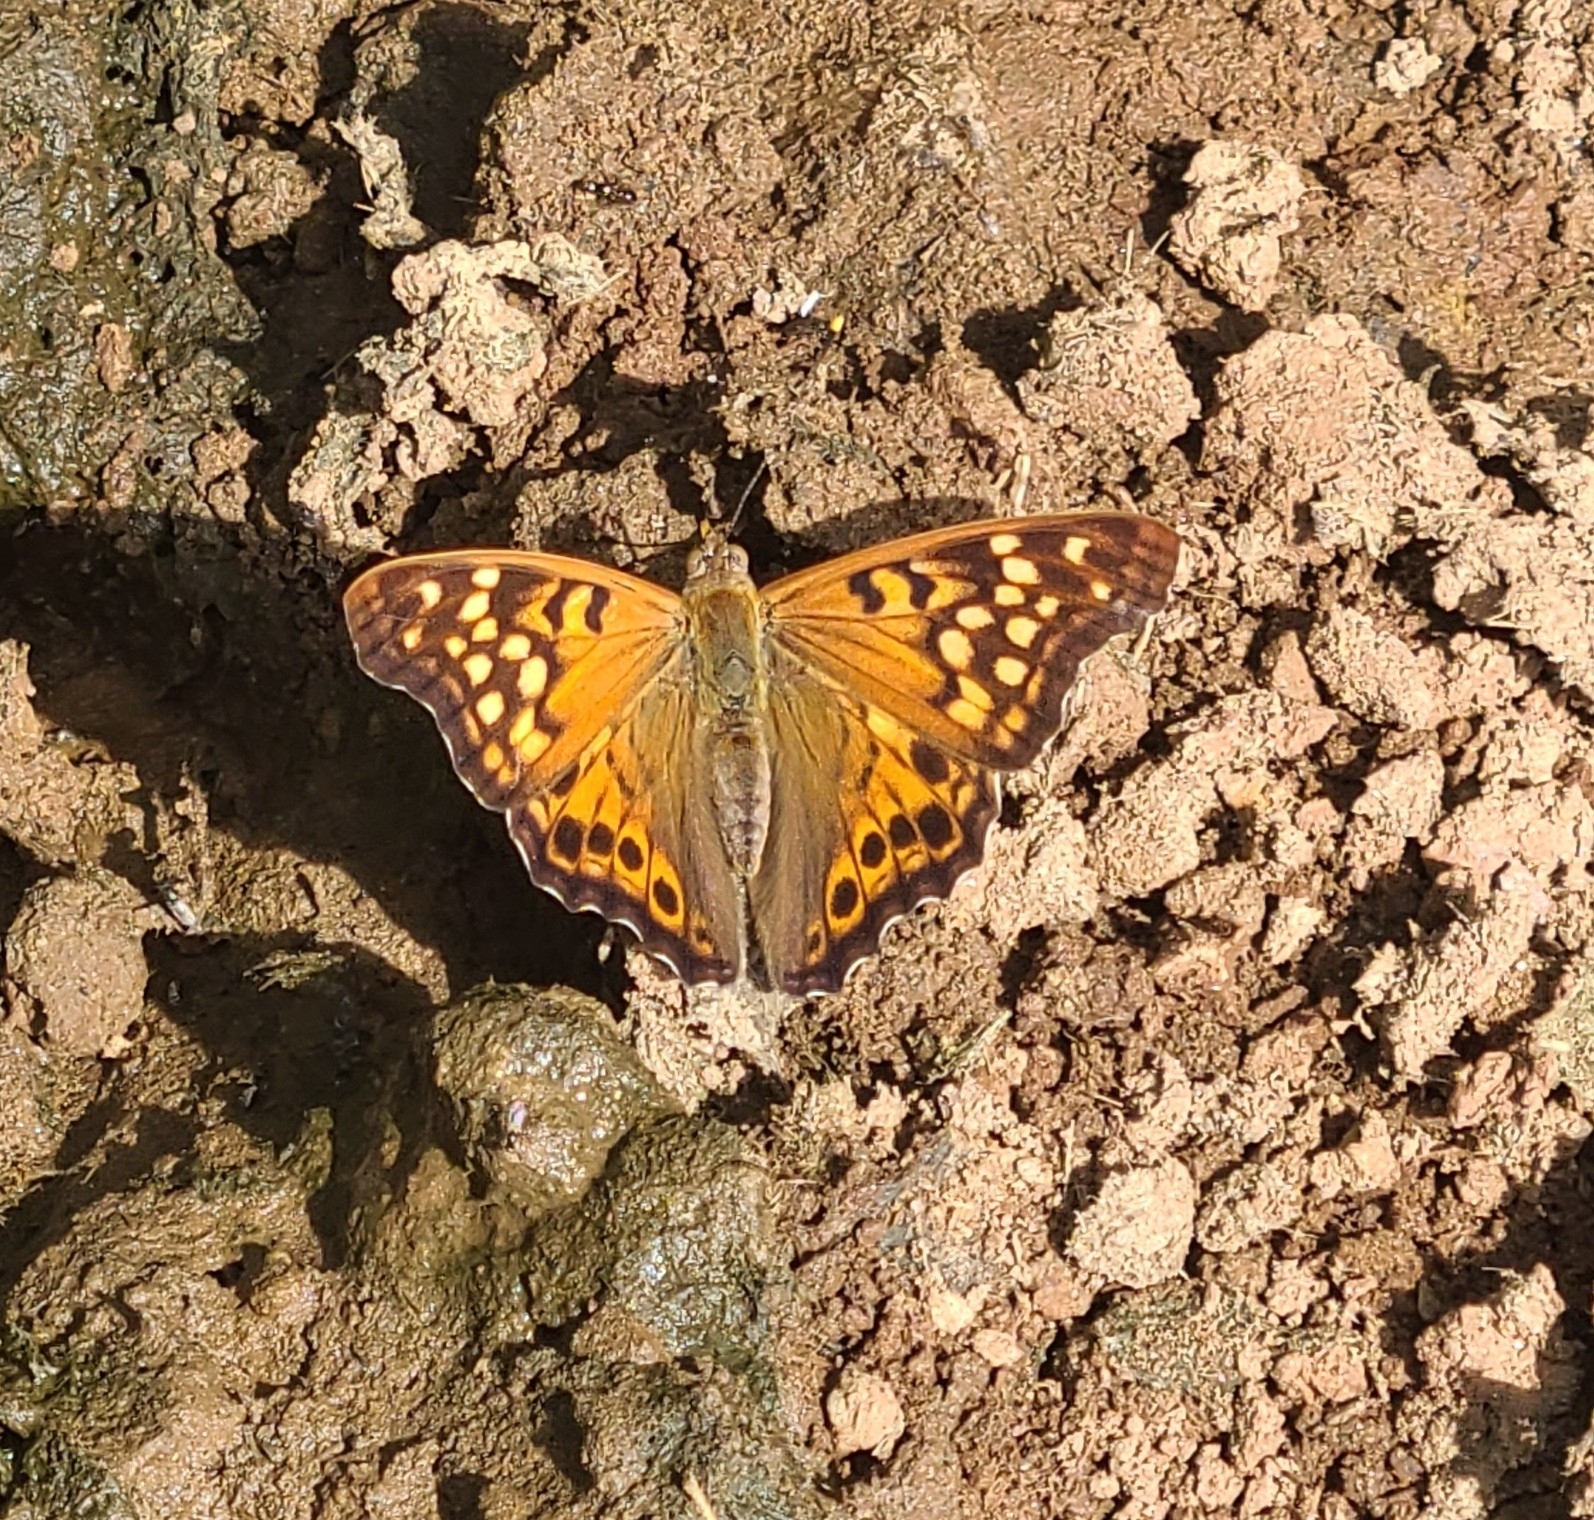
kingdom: Animalia
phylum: Arthropoda
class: Insecta
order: Lepidoptera
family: Nymphalidae
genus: Asterocampa
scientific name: Asterocampa clyton
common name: Tawny emperor
